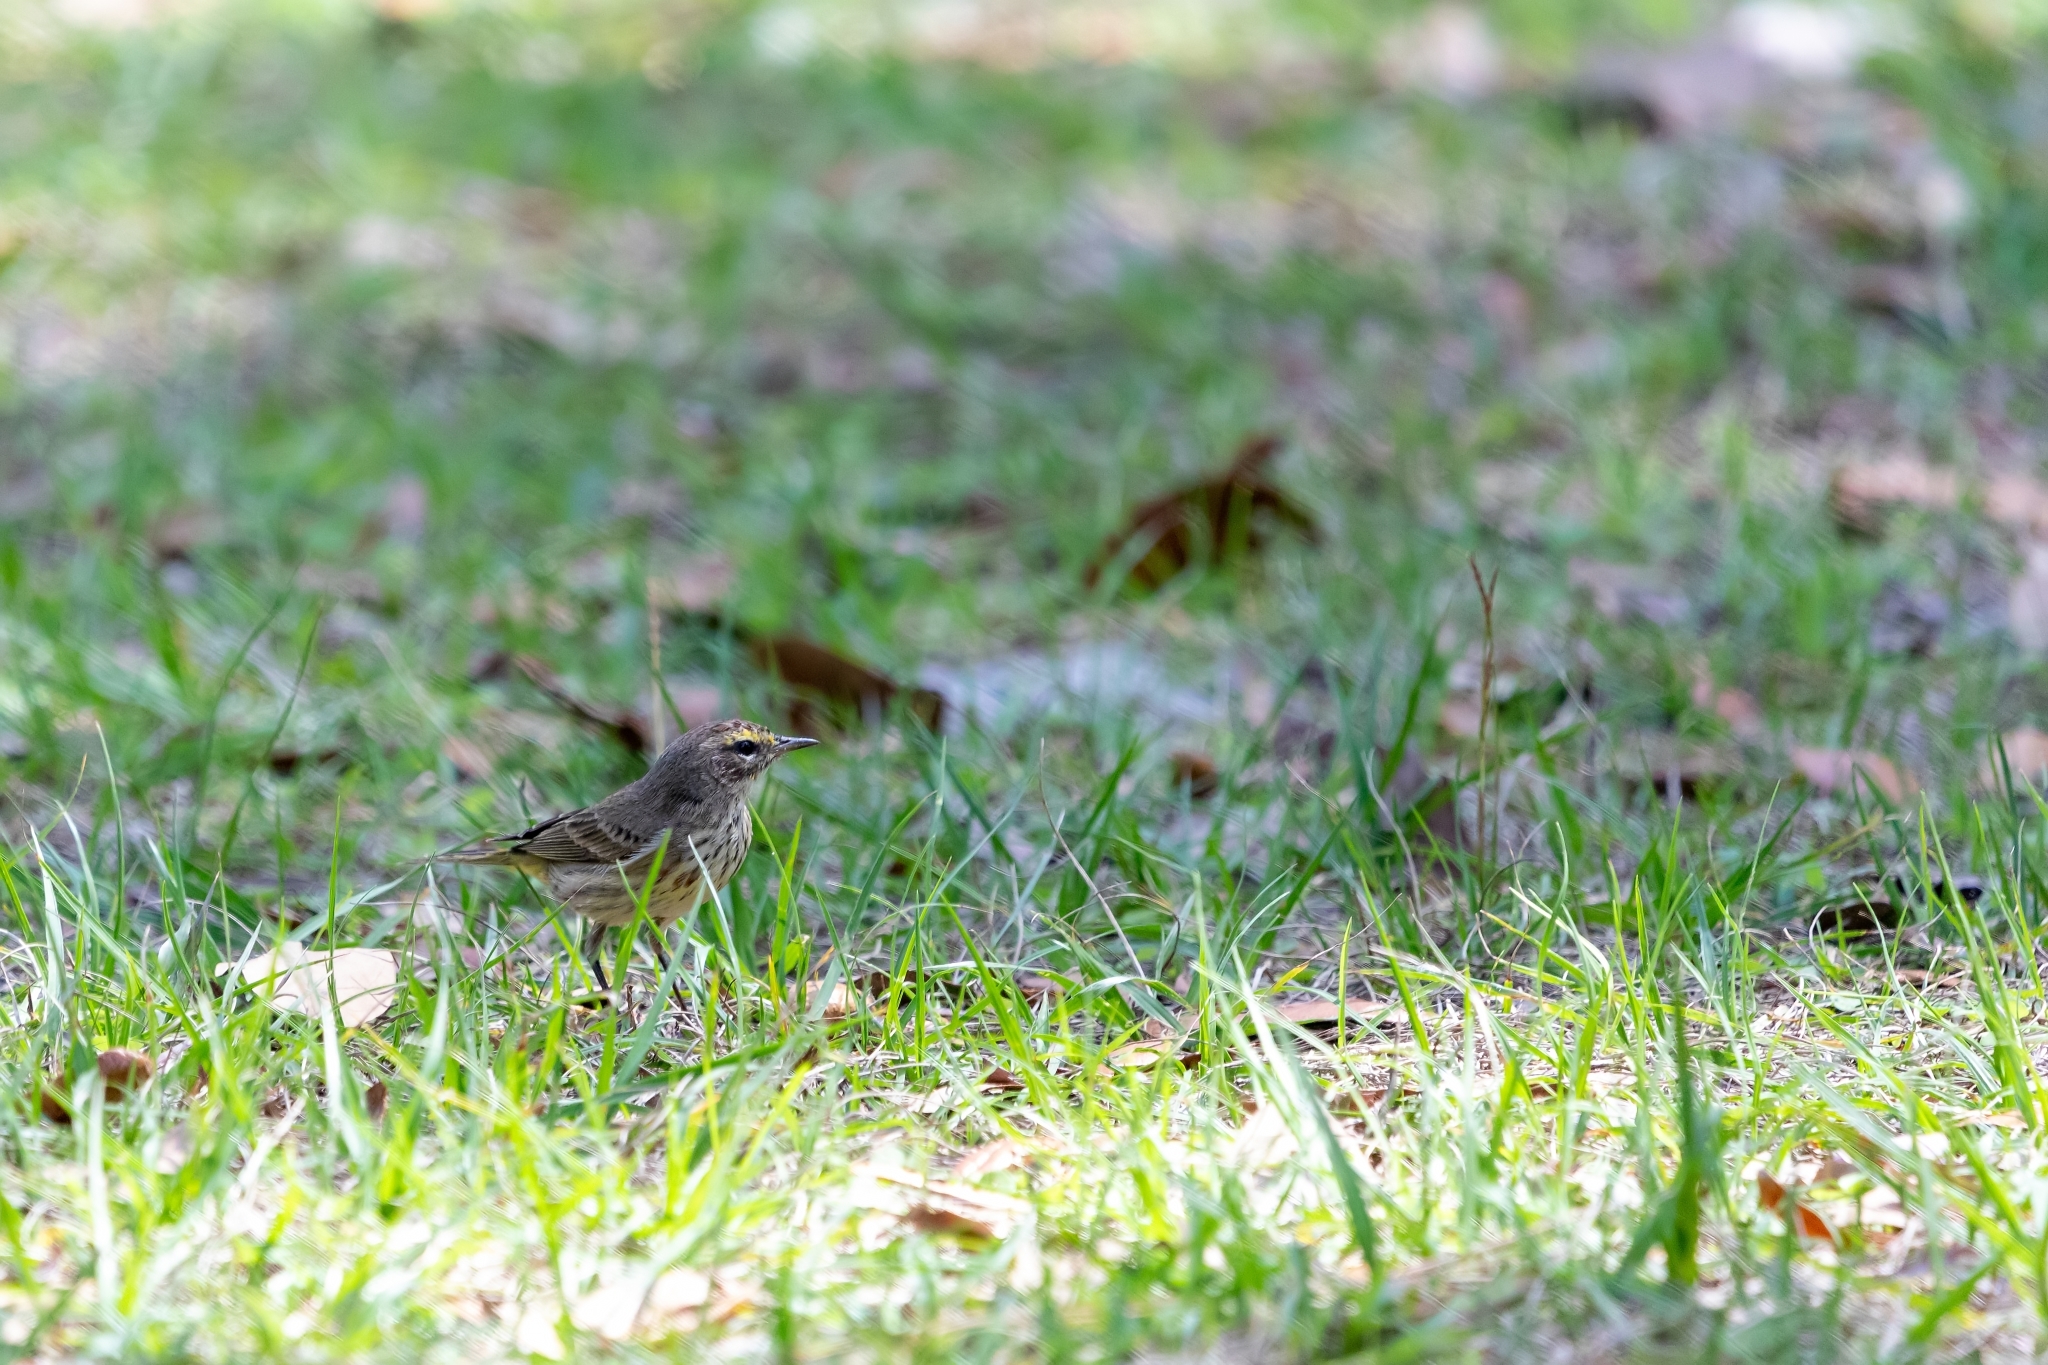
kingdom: Animalia
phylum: Chordata
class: Aves
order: Passeriformes
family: Parulidae
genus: Setophaga
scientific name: Setophaga palmarum
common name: Palm warbler
